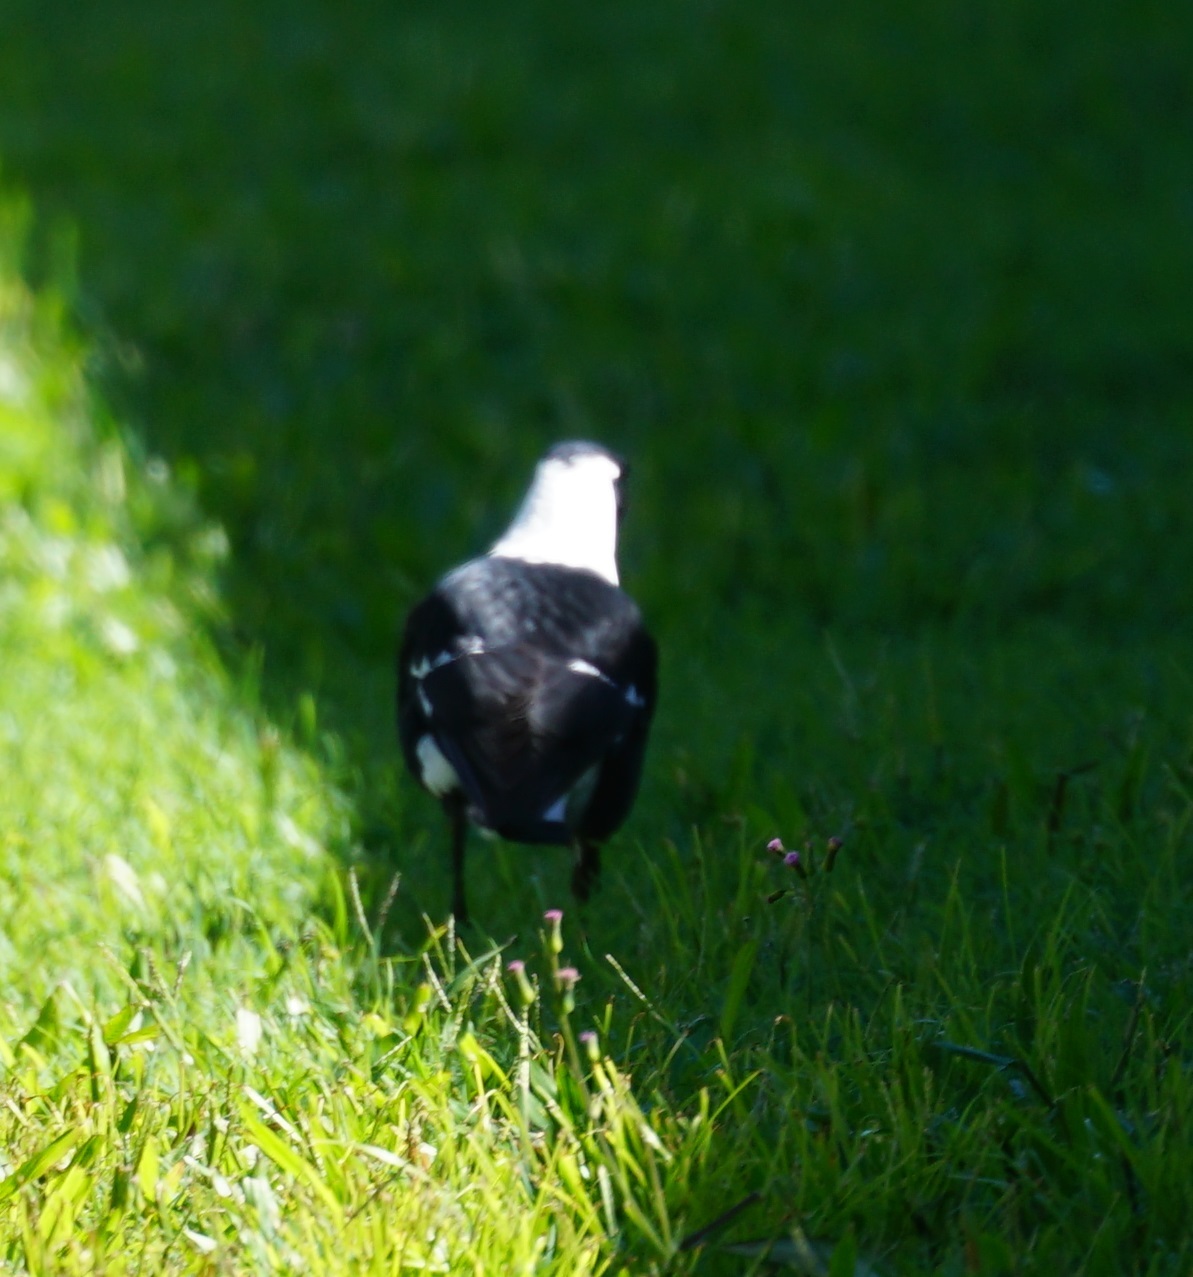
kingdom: Animalia
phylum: Chordata
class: Aves
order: Passeriformes
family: Cracticidae
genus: Gymnorhina
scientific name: Gymnorhina tibicen
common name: Australian magpie
